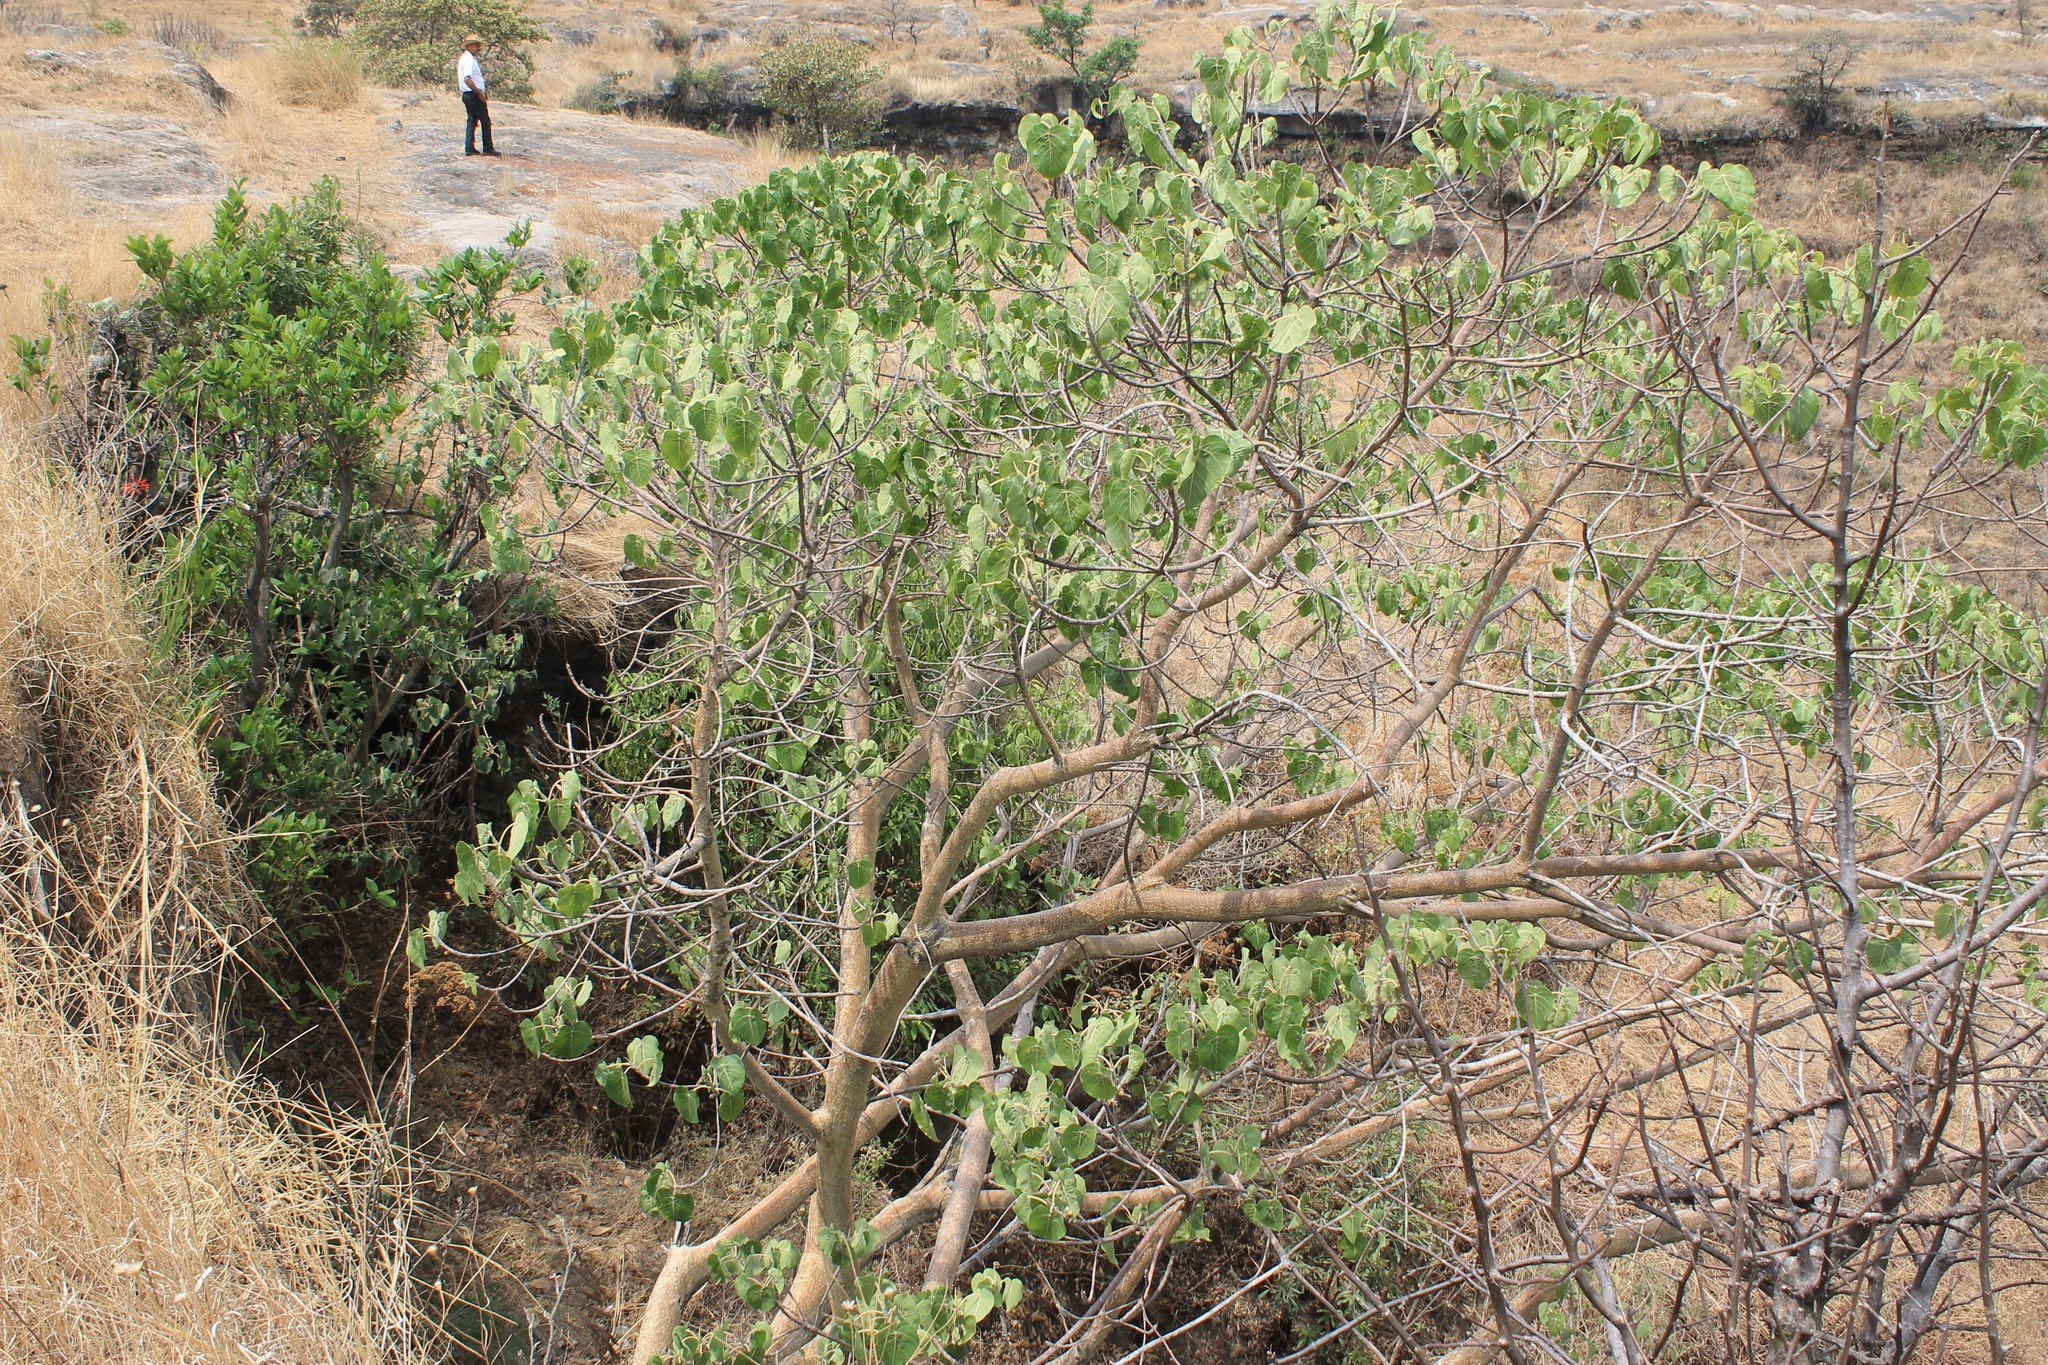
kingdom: Plantae
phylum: Tracheophyta
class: Magnoliopsida
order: Rosales
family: Moraceae
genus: Ficus
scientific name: Ficus petiolaris
